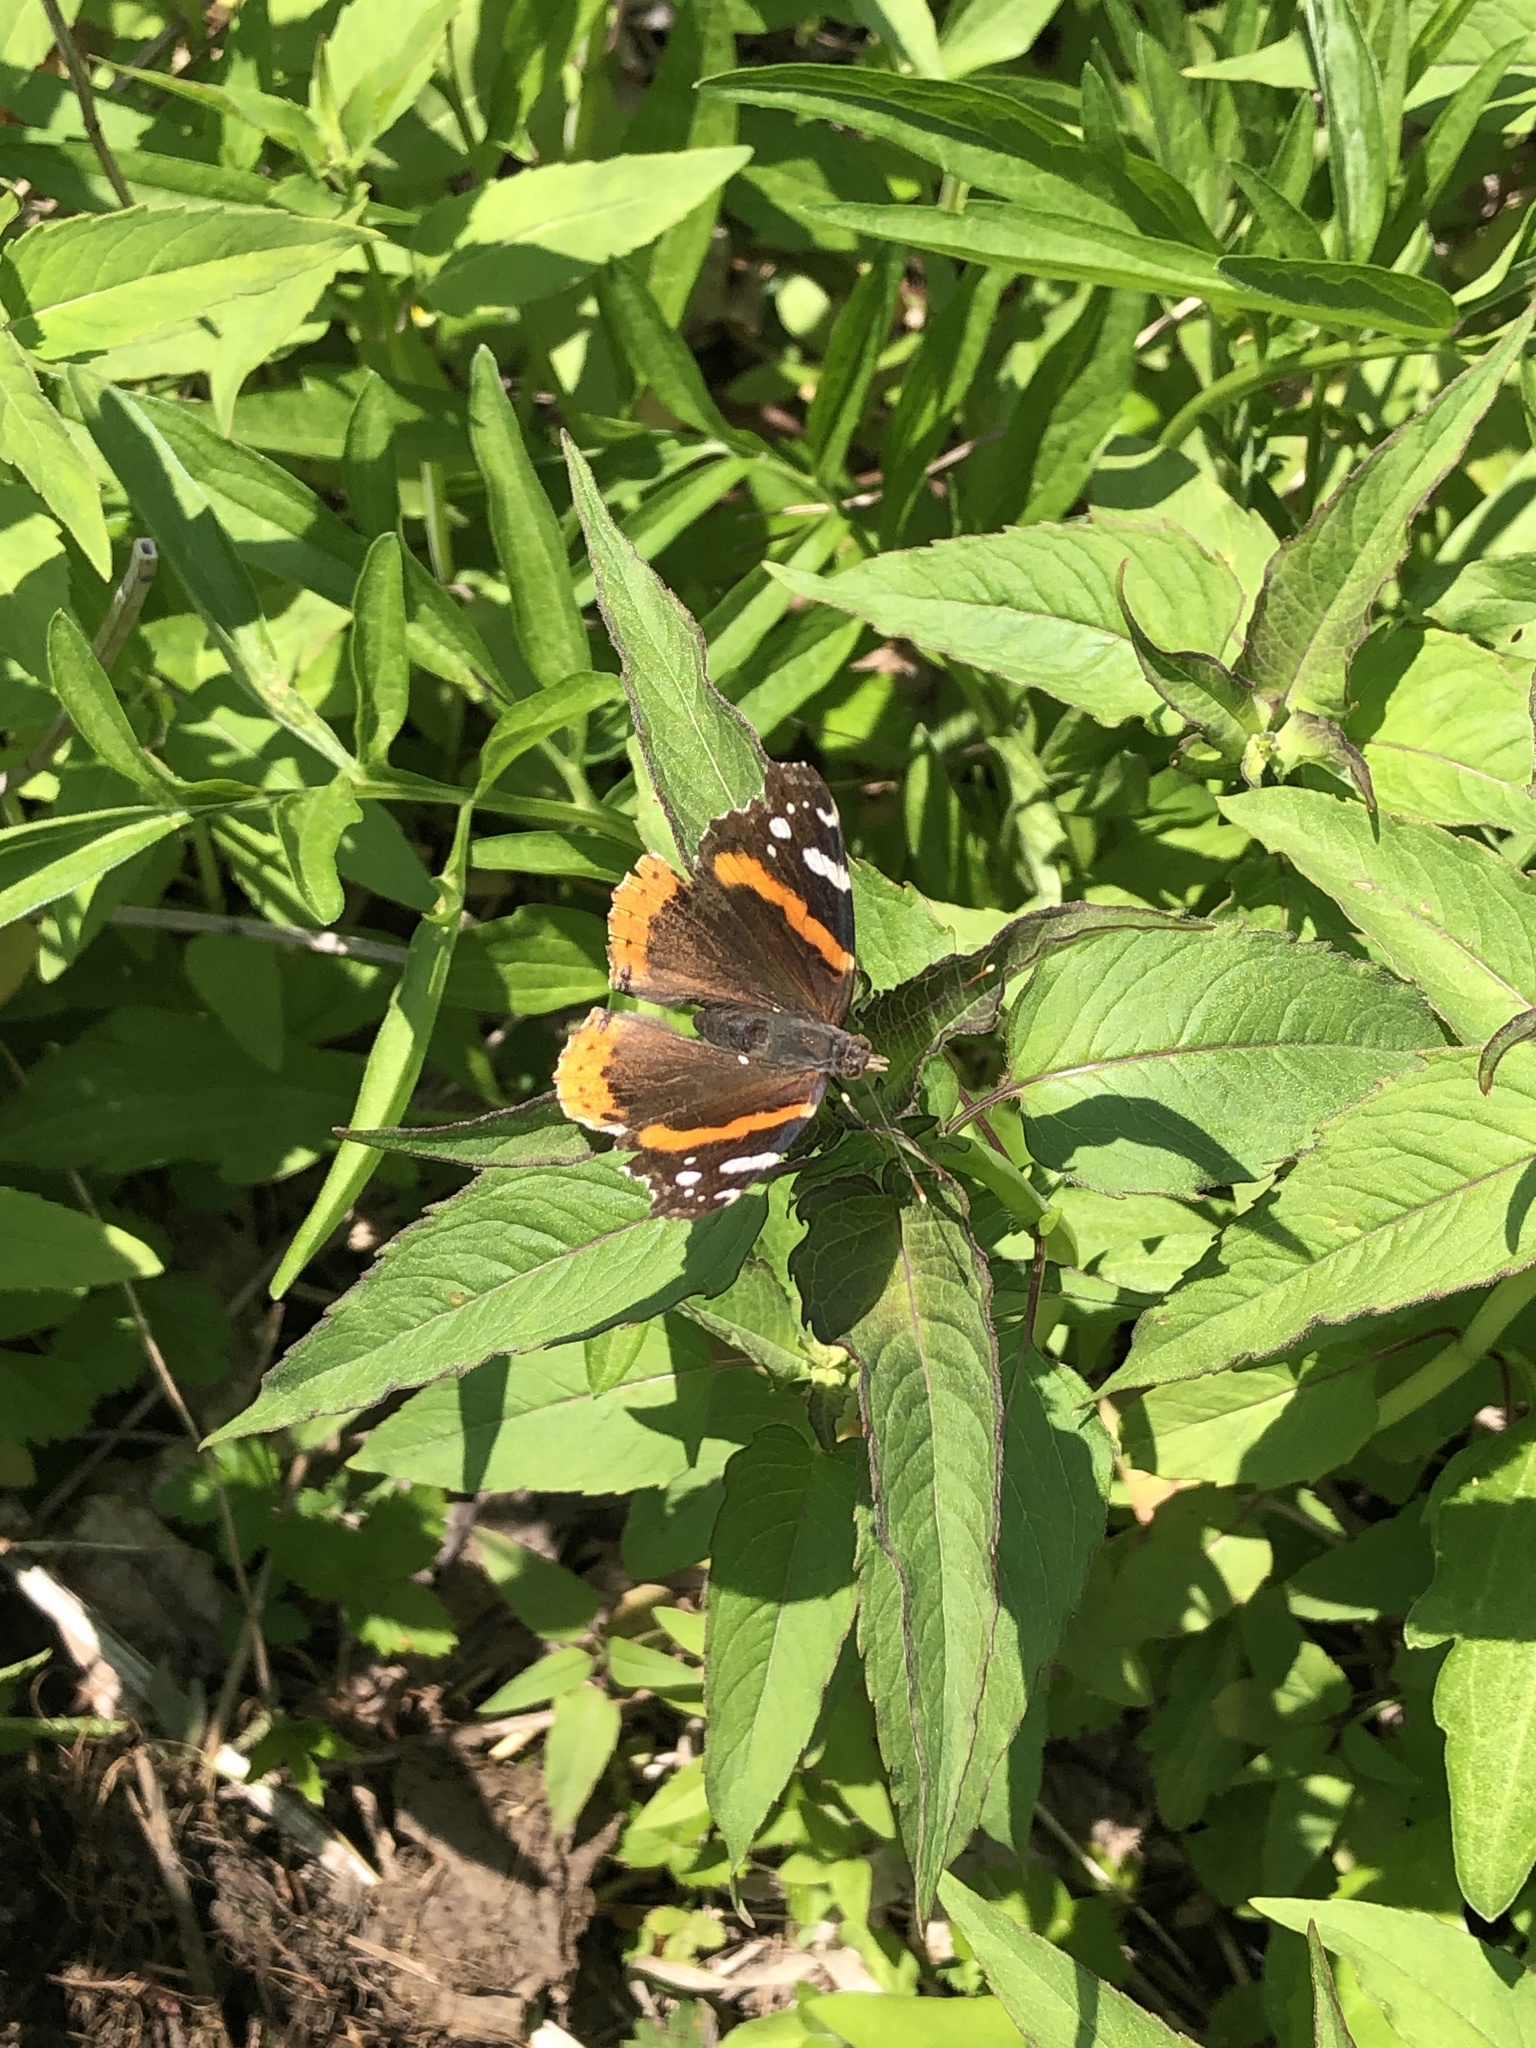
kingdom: Animalia
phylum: Arthropoda
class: Insecta
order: Lepidoptera
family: Nymphalidae
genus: Vanessa
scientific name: Vanessa atalanta
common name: Red admiral
